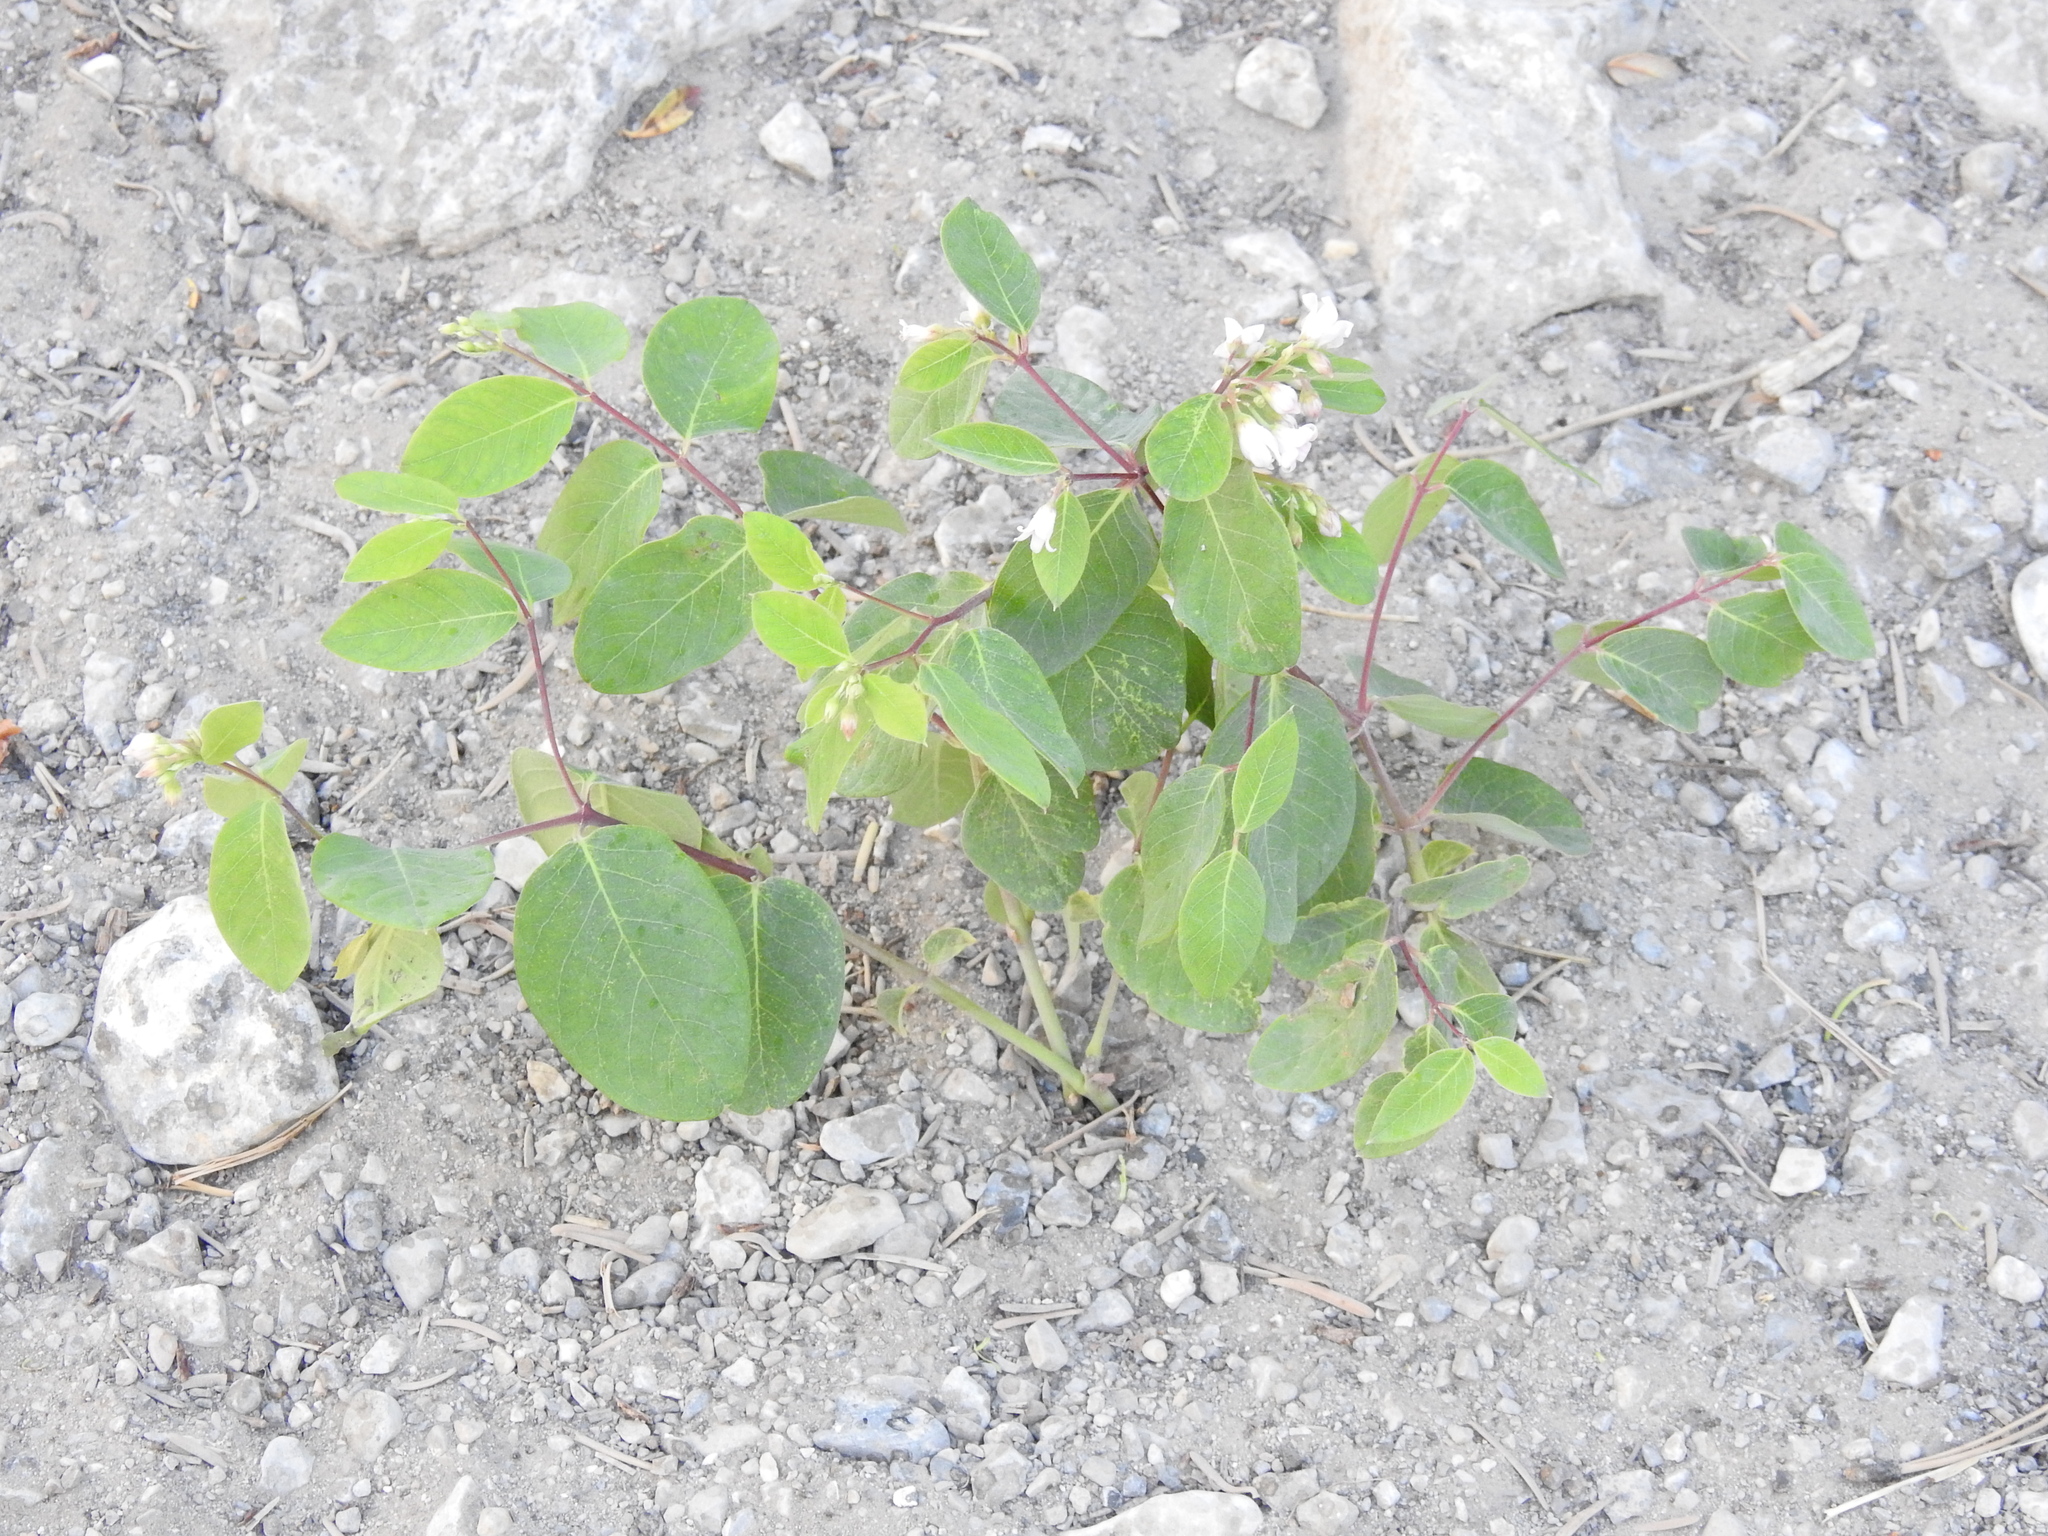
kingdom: Plantae
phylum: Tracheophyta
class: Magnoliopsida
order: Gentianales
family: Apocynaceae
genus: Apocynum
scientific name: Apocynum androsaemifolium
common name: Spreading dogbane
